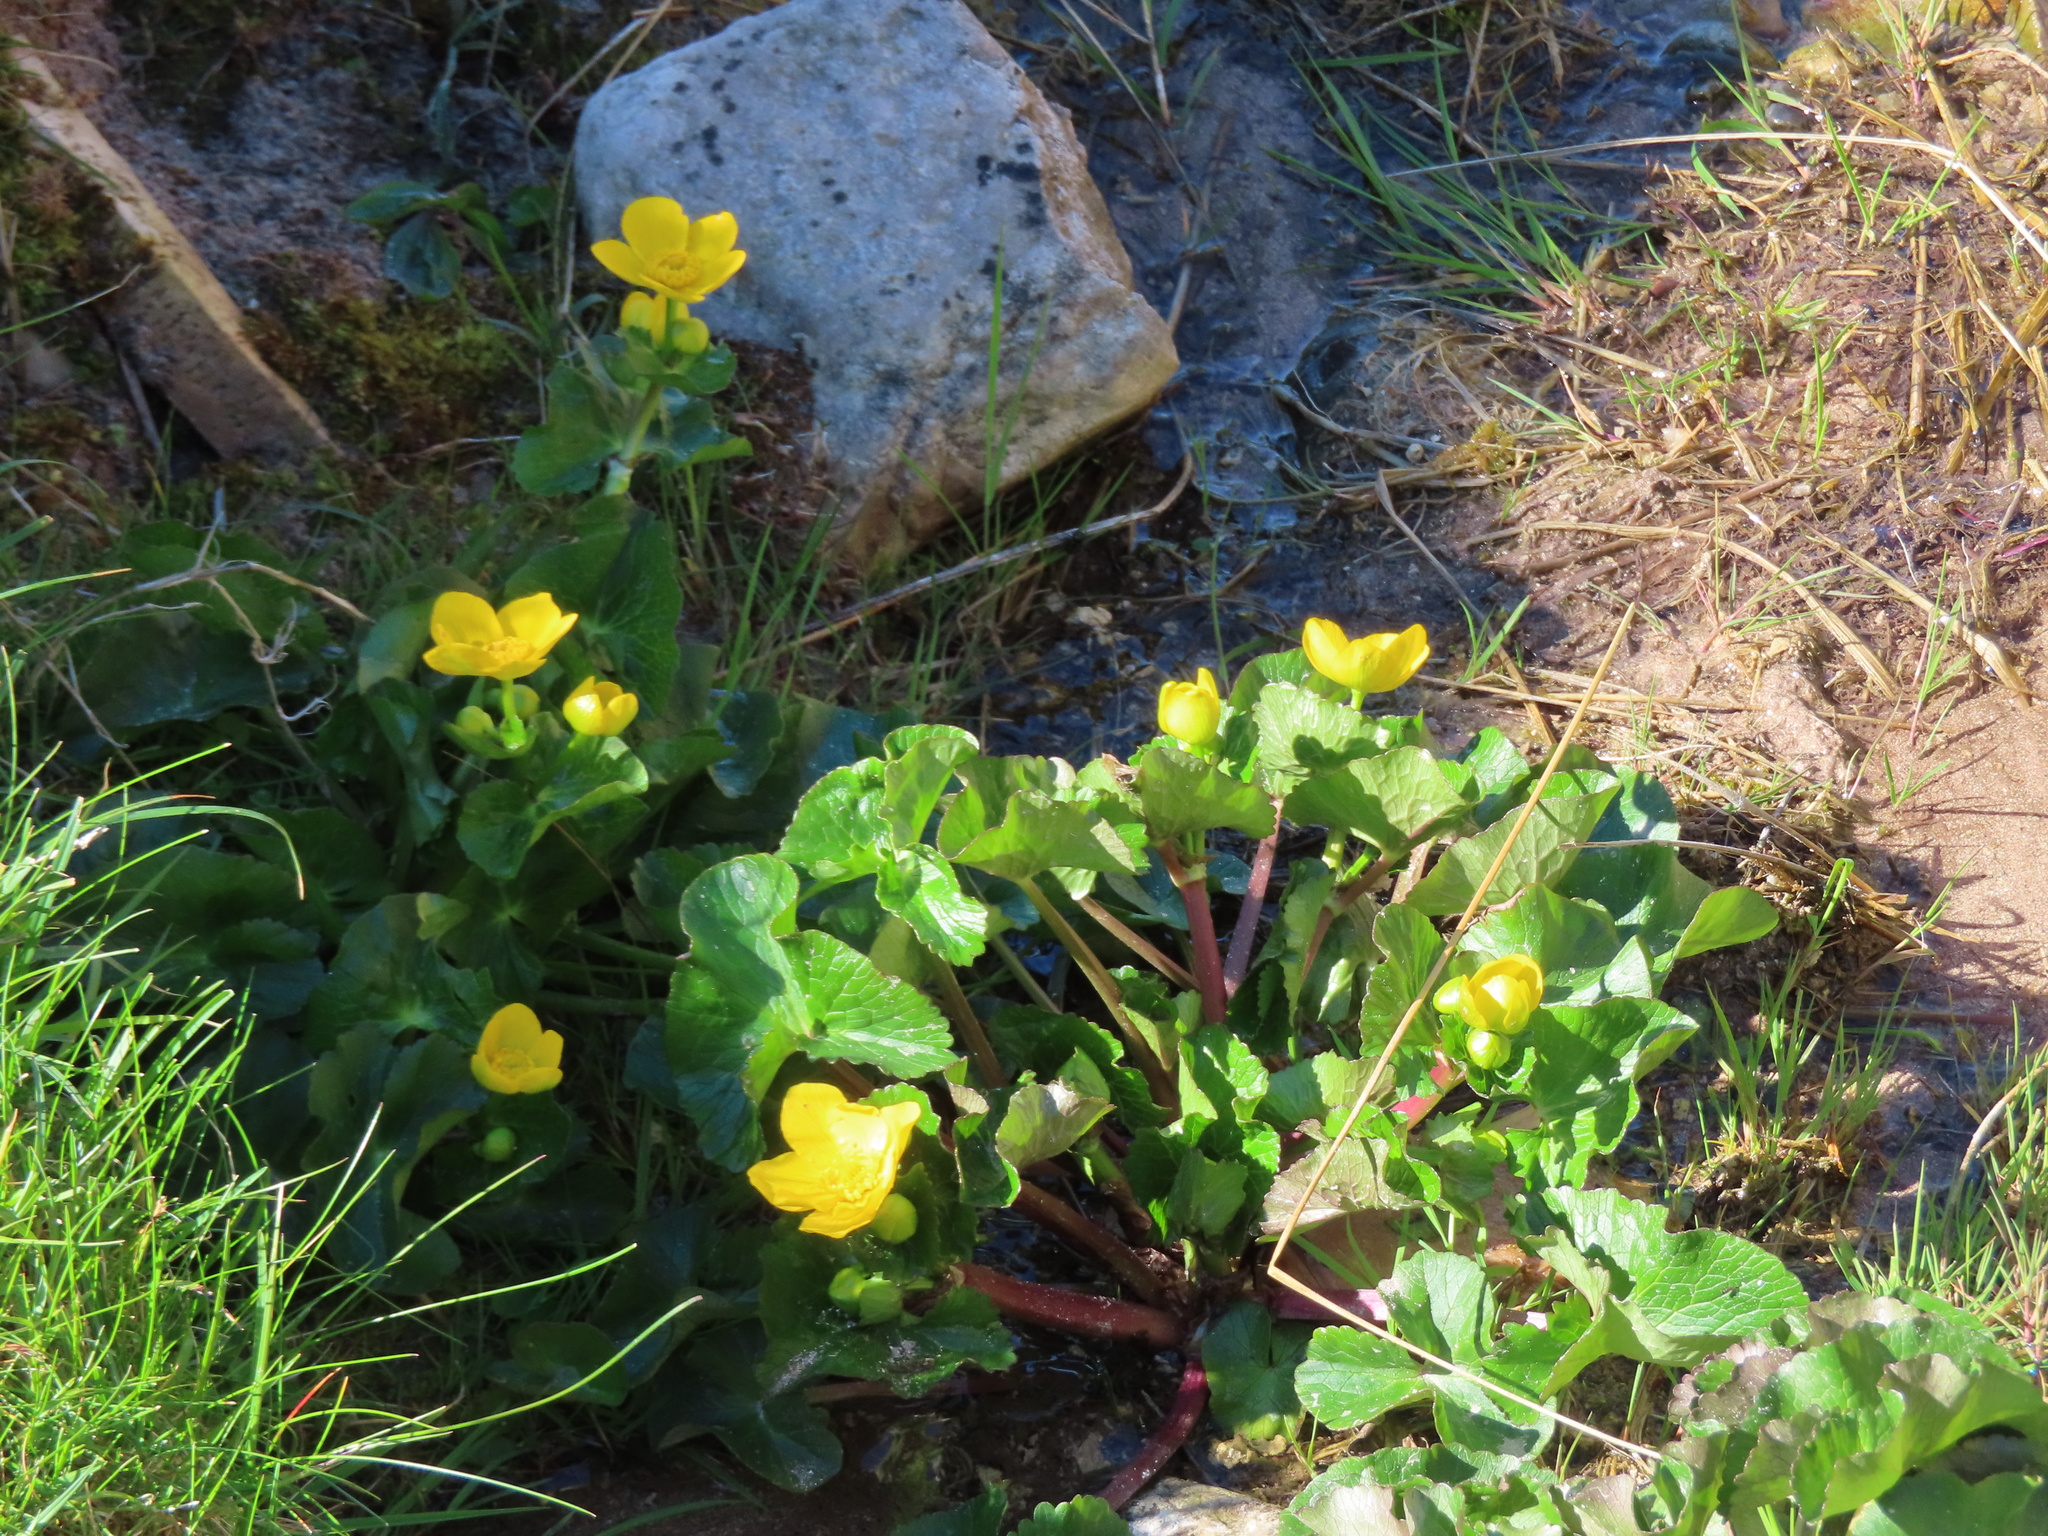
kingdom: Plantae
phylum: Tracheophyta
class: Magnoliopsida
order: Ranunculales
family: Ranunculaceae
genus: Caltha
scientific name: Caltha palustris
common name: Marsh marigold
